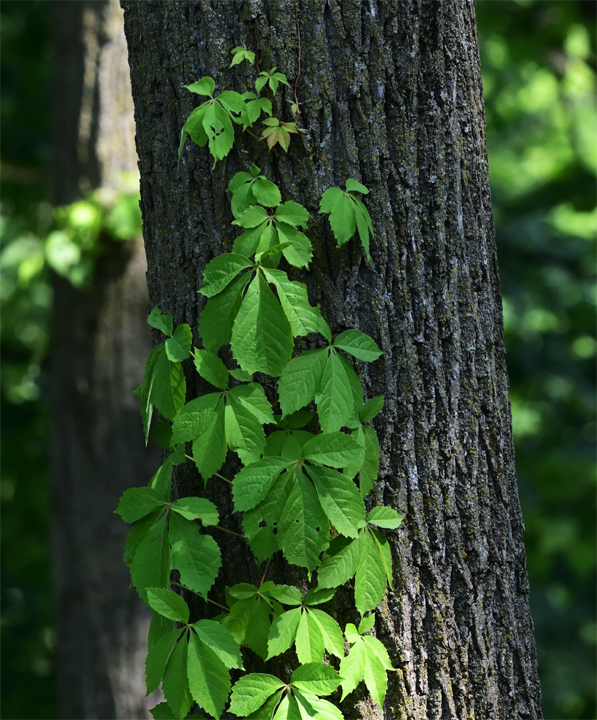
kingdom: Plantae
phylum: Tracheophyta
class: Magnoliopsida
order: Vitales
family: Vitaceae
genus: Parthenocissus
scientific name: Parthenocissus quinquefolia
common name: Virginia-creeper
